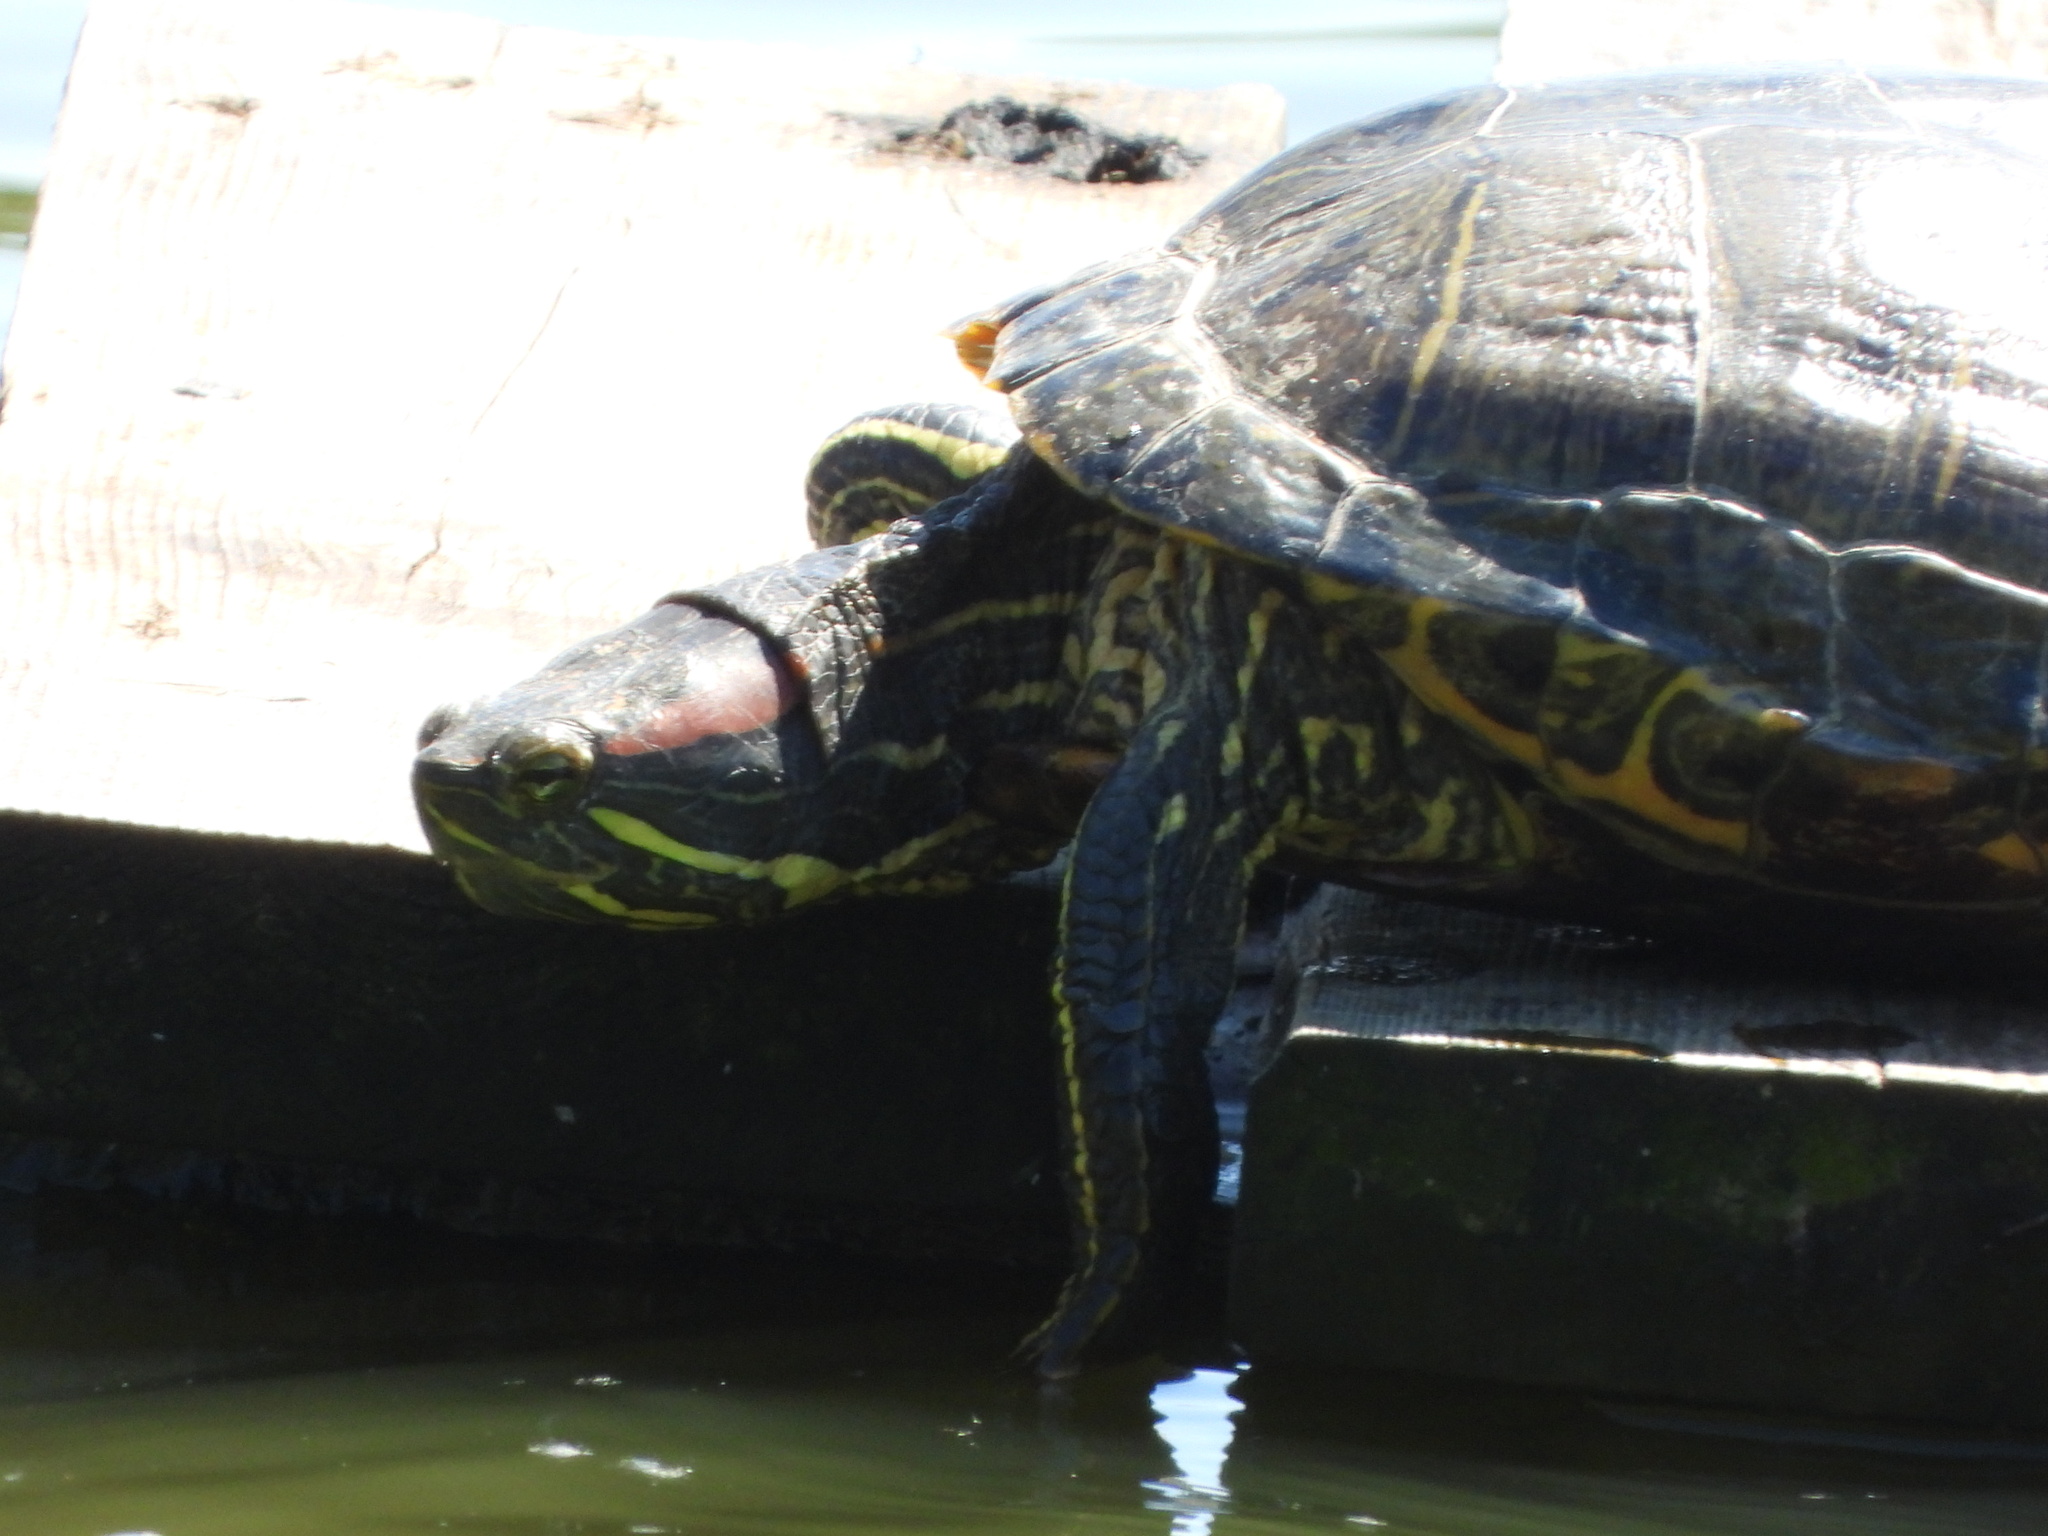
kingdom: Animalia
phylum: Chordata
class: Testudines
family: Emydidae
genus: Trachemys
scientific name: Trachemys scripta
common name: Slider
